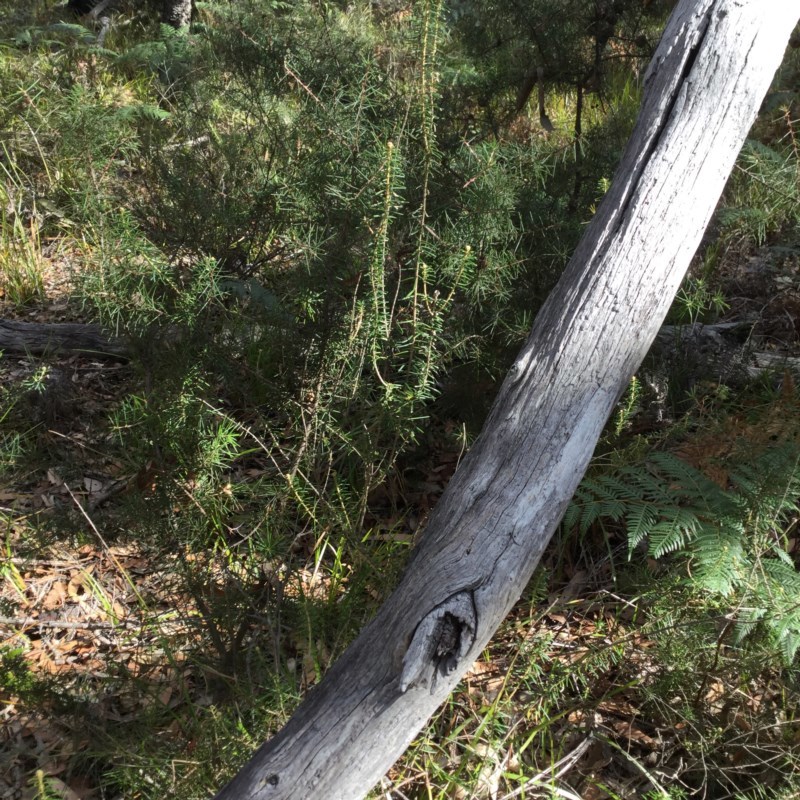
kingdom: Plantae
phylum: Tracheophyta
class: Magnoliopsida
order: Apiales
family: Araliaceae
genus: Astrotricha
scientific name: Astrotricha
